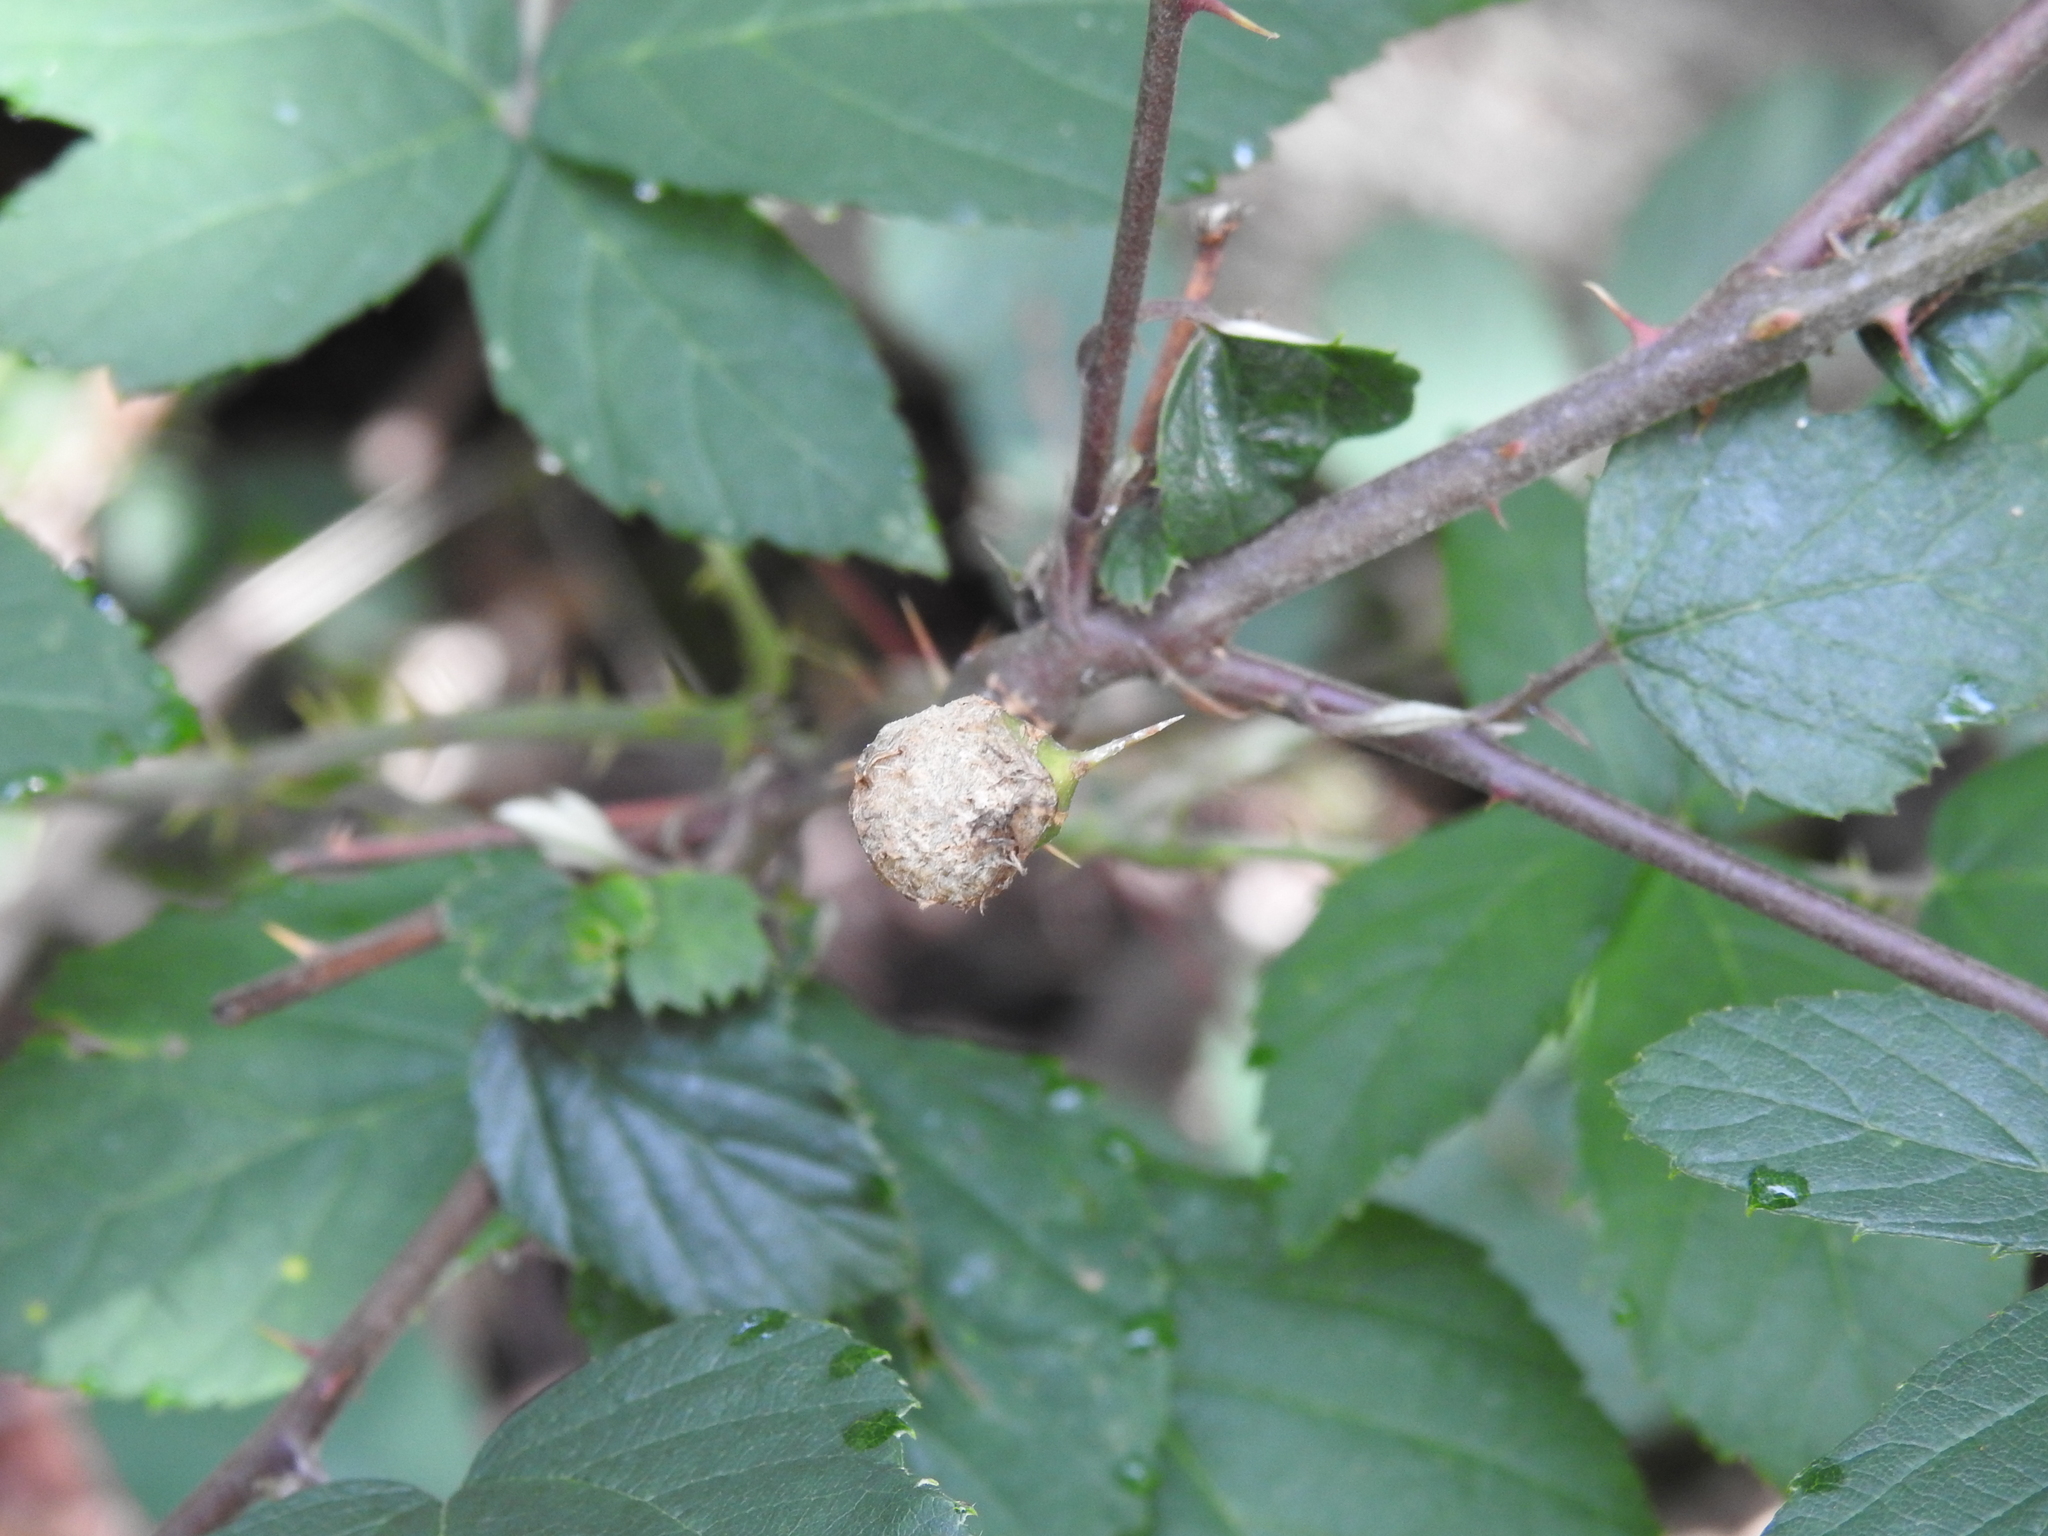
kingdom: Animalia
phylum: Arthropoda
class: Insecta
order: Diptera
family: Cecidomyiidae
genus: Lasioptera
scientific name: Lasioptera rubi
